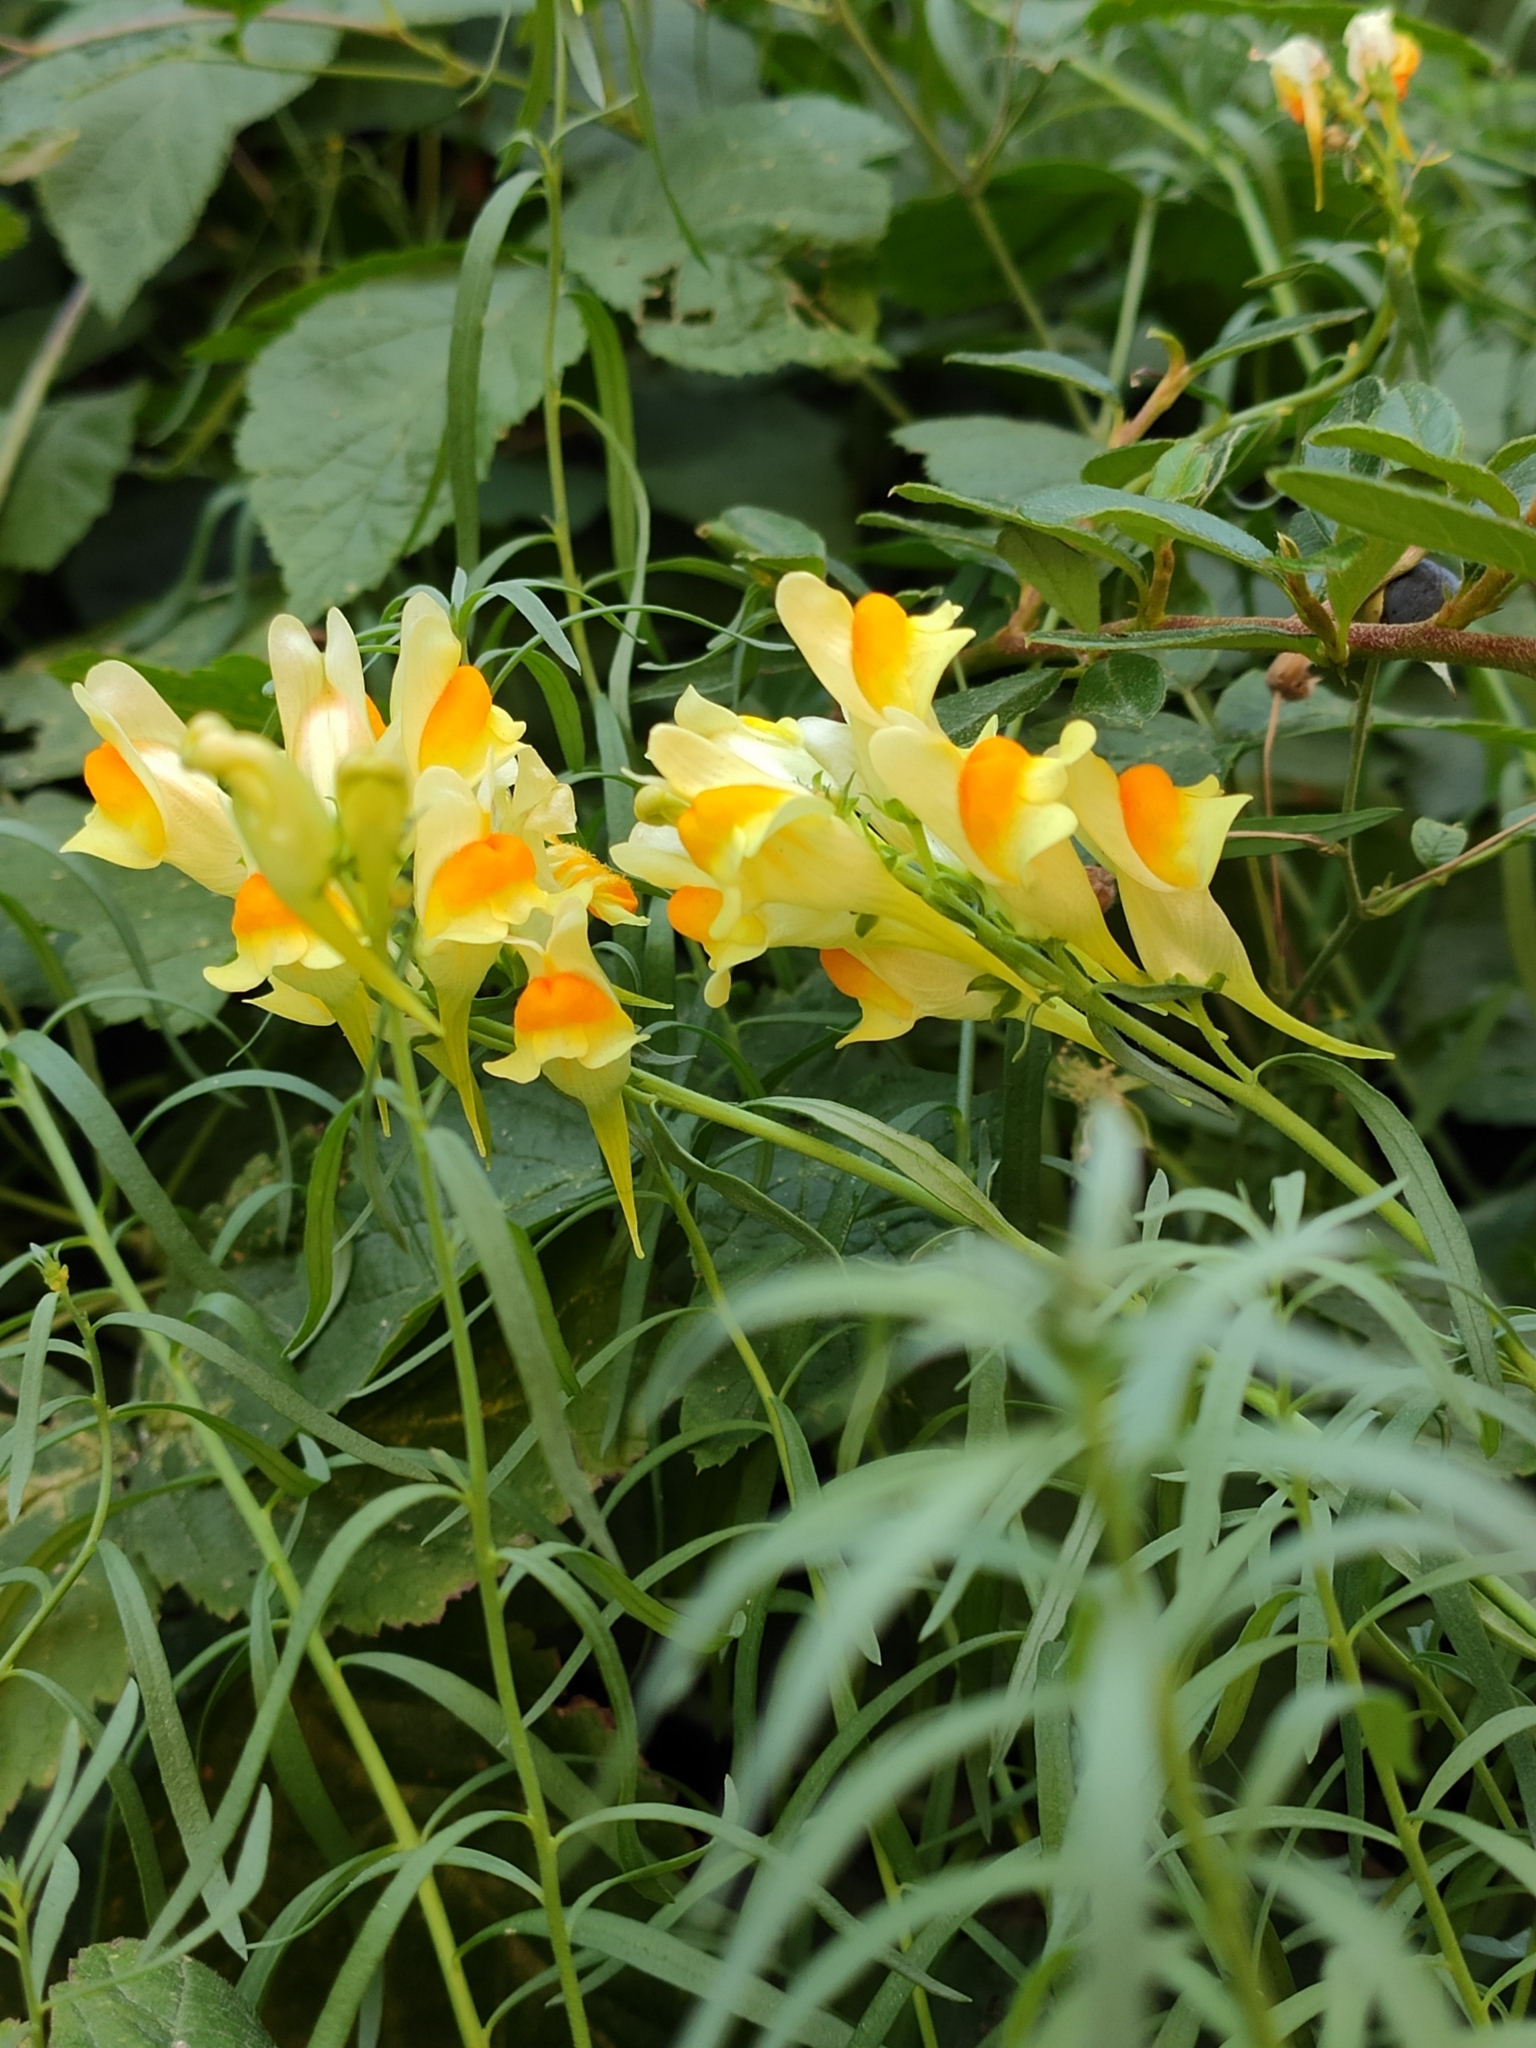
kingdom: Plantae
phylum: Tracheophyta
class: Magnoliopsida
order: Lamiales
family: Plantaginaceae
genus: Linaria
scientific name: Linaria vulgaris
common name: Butter and eggs
